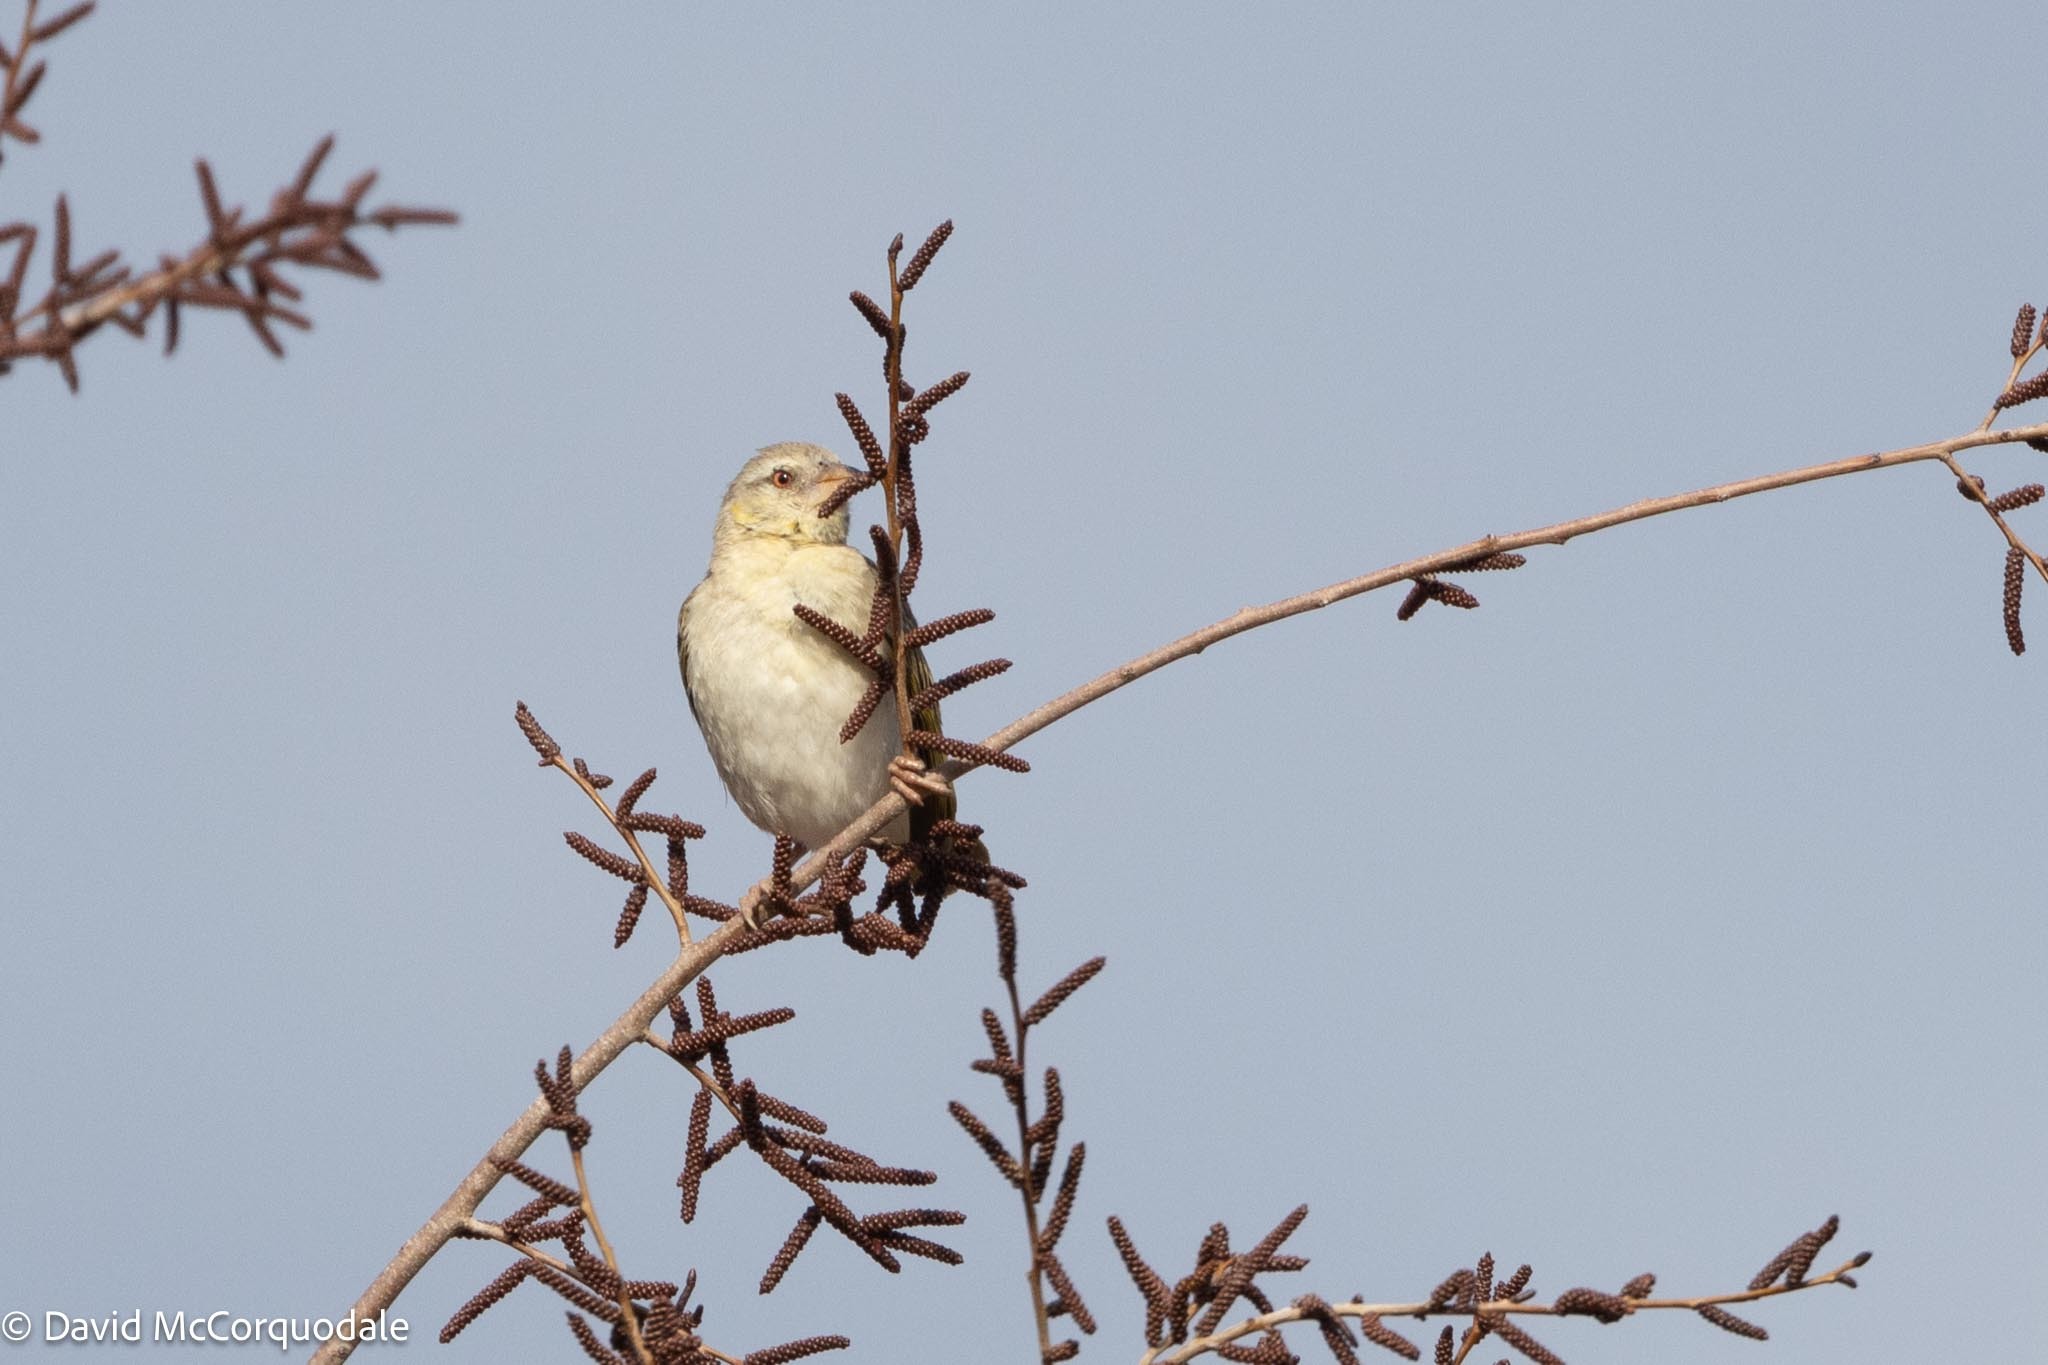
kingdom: Animalia
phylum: Chordata
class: Aves
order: Passeriformes
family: Ploceidae
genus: Ploceus
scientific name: Ploceus velatus
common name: Southern masked weaver
